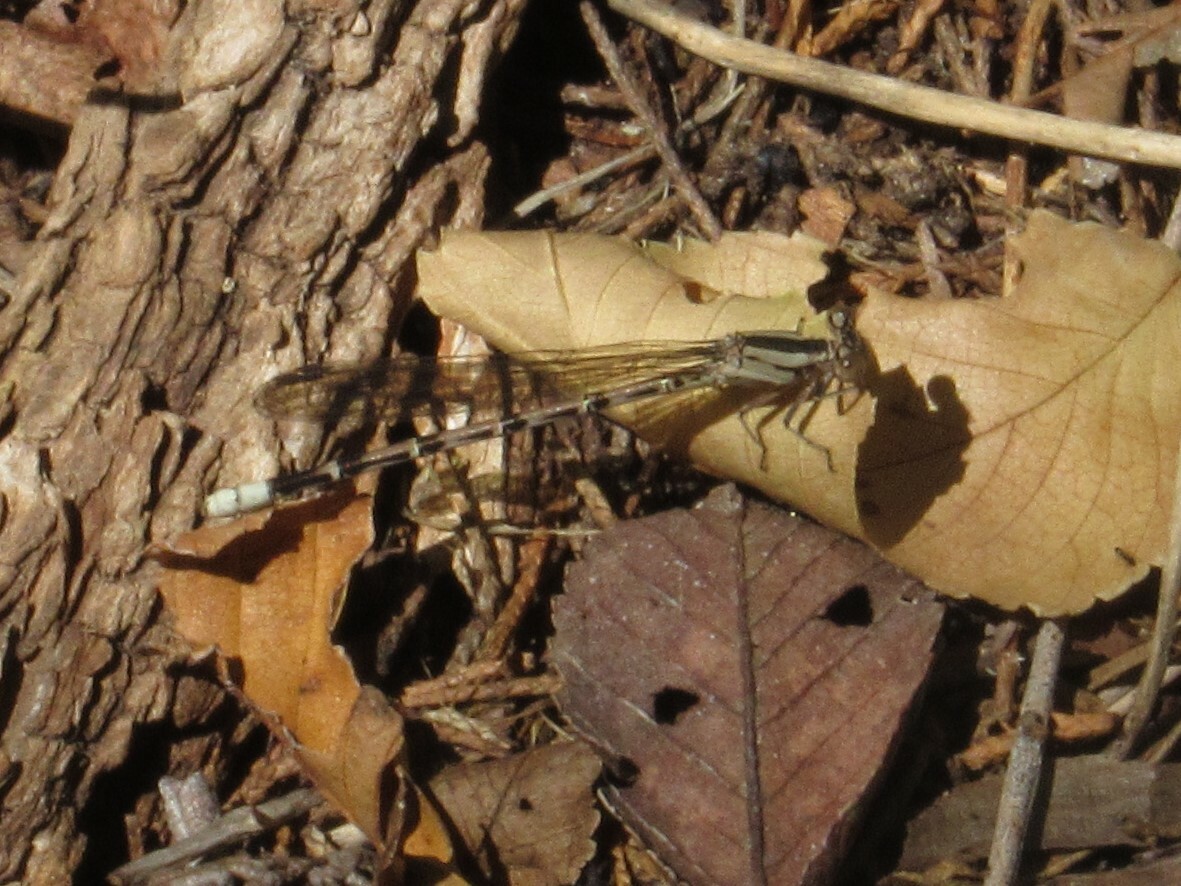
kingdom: Animalia
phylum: Arthropoda
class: Insecta
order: Odonata
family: Coenagrionidae
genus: Argia
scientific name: Argia funebris
